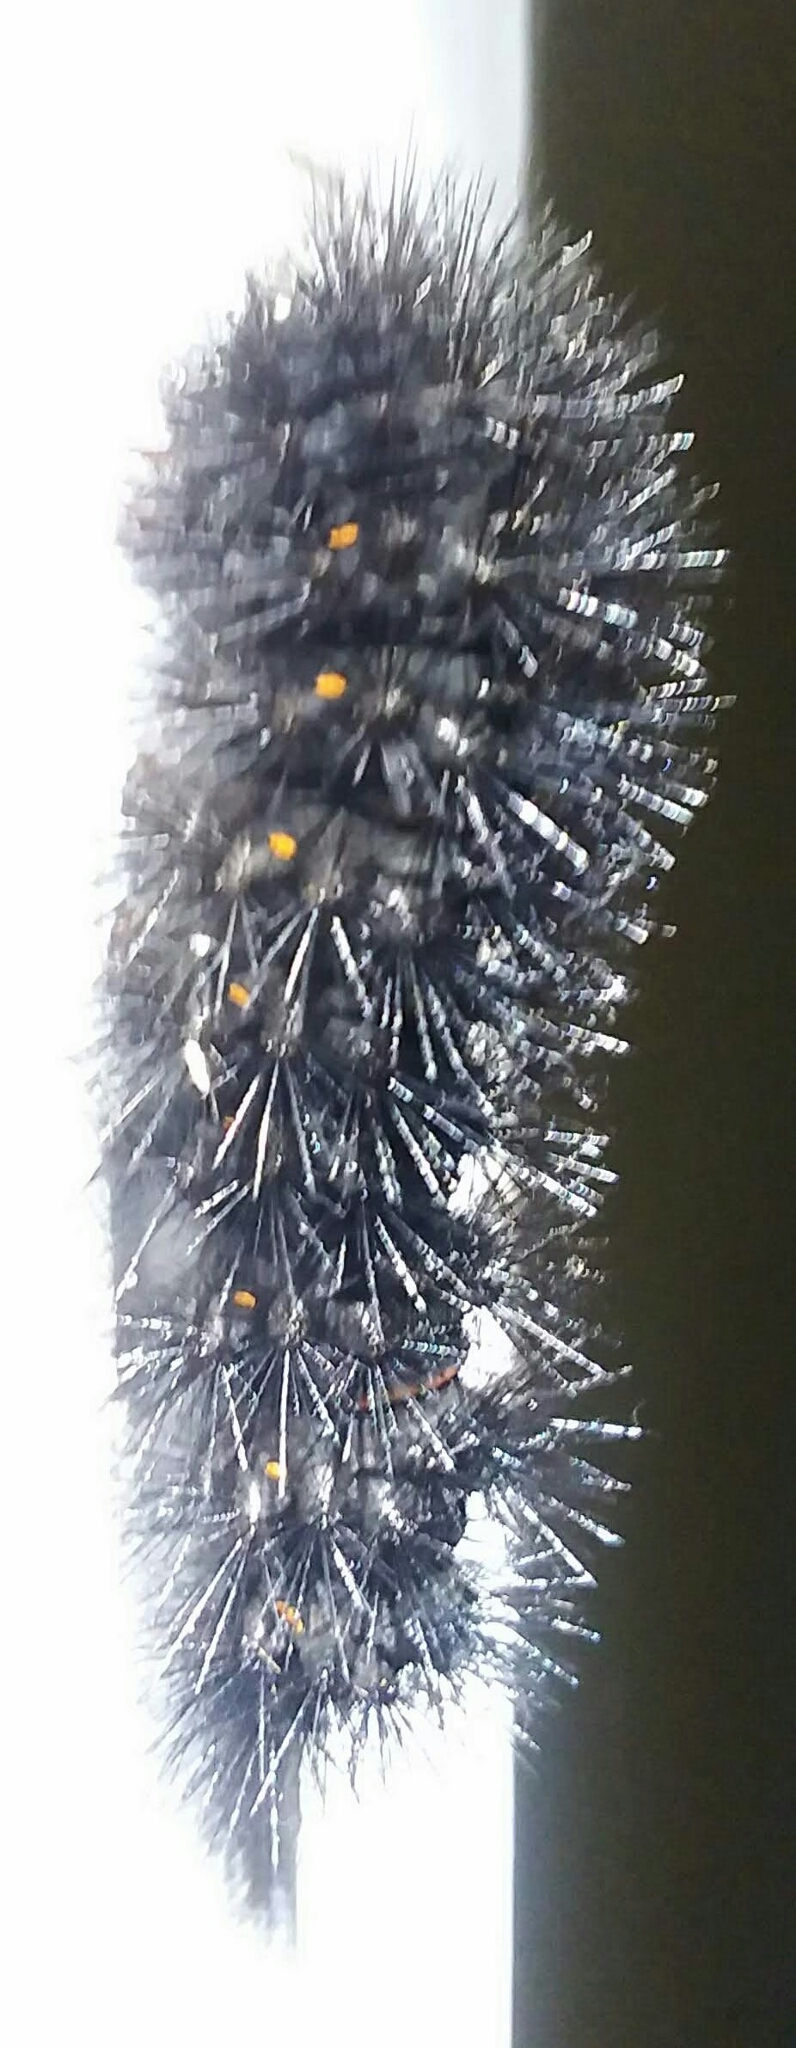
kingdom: Animalia
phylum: Arthropoda
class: Insecta
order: Lepidoptera
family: Erebidae
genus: Hypercompe
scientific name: Hypercompe scribonia
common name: Giant leopard moth
